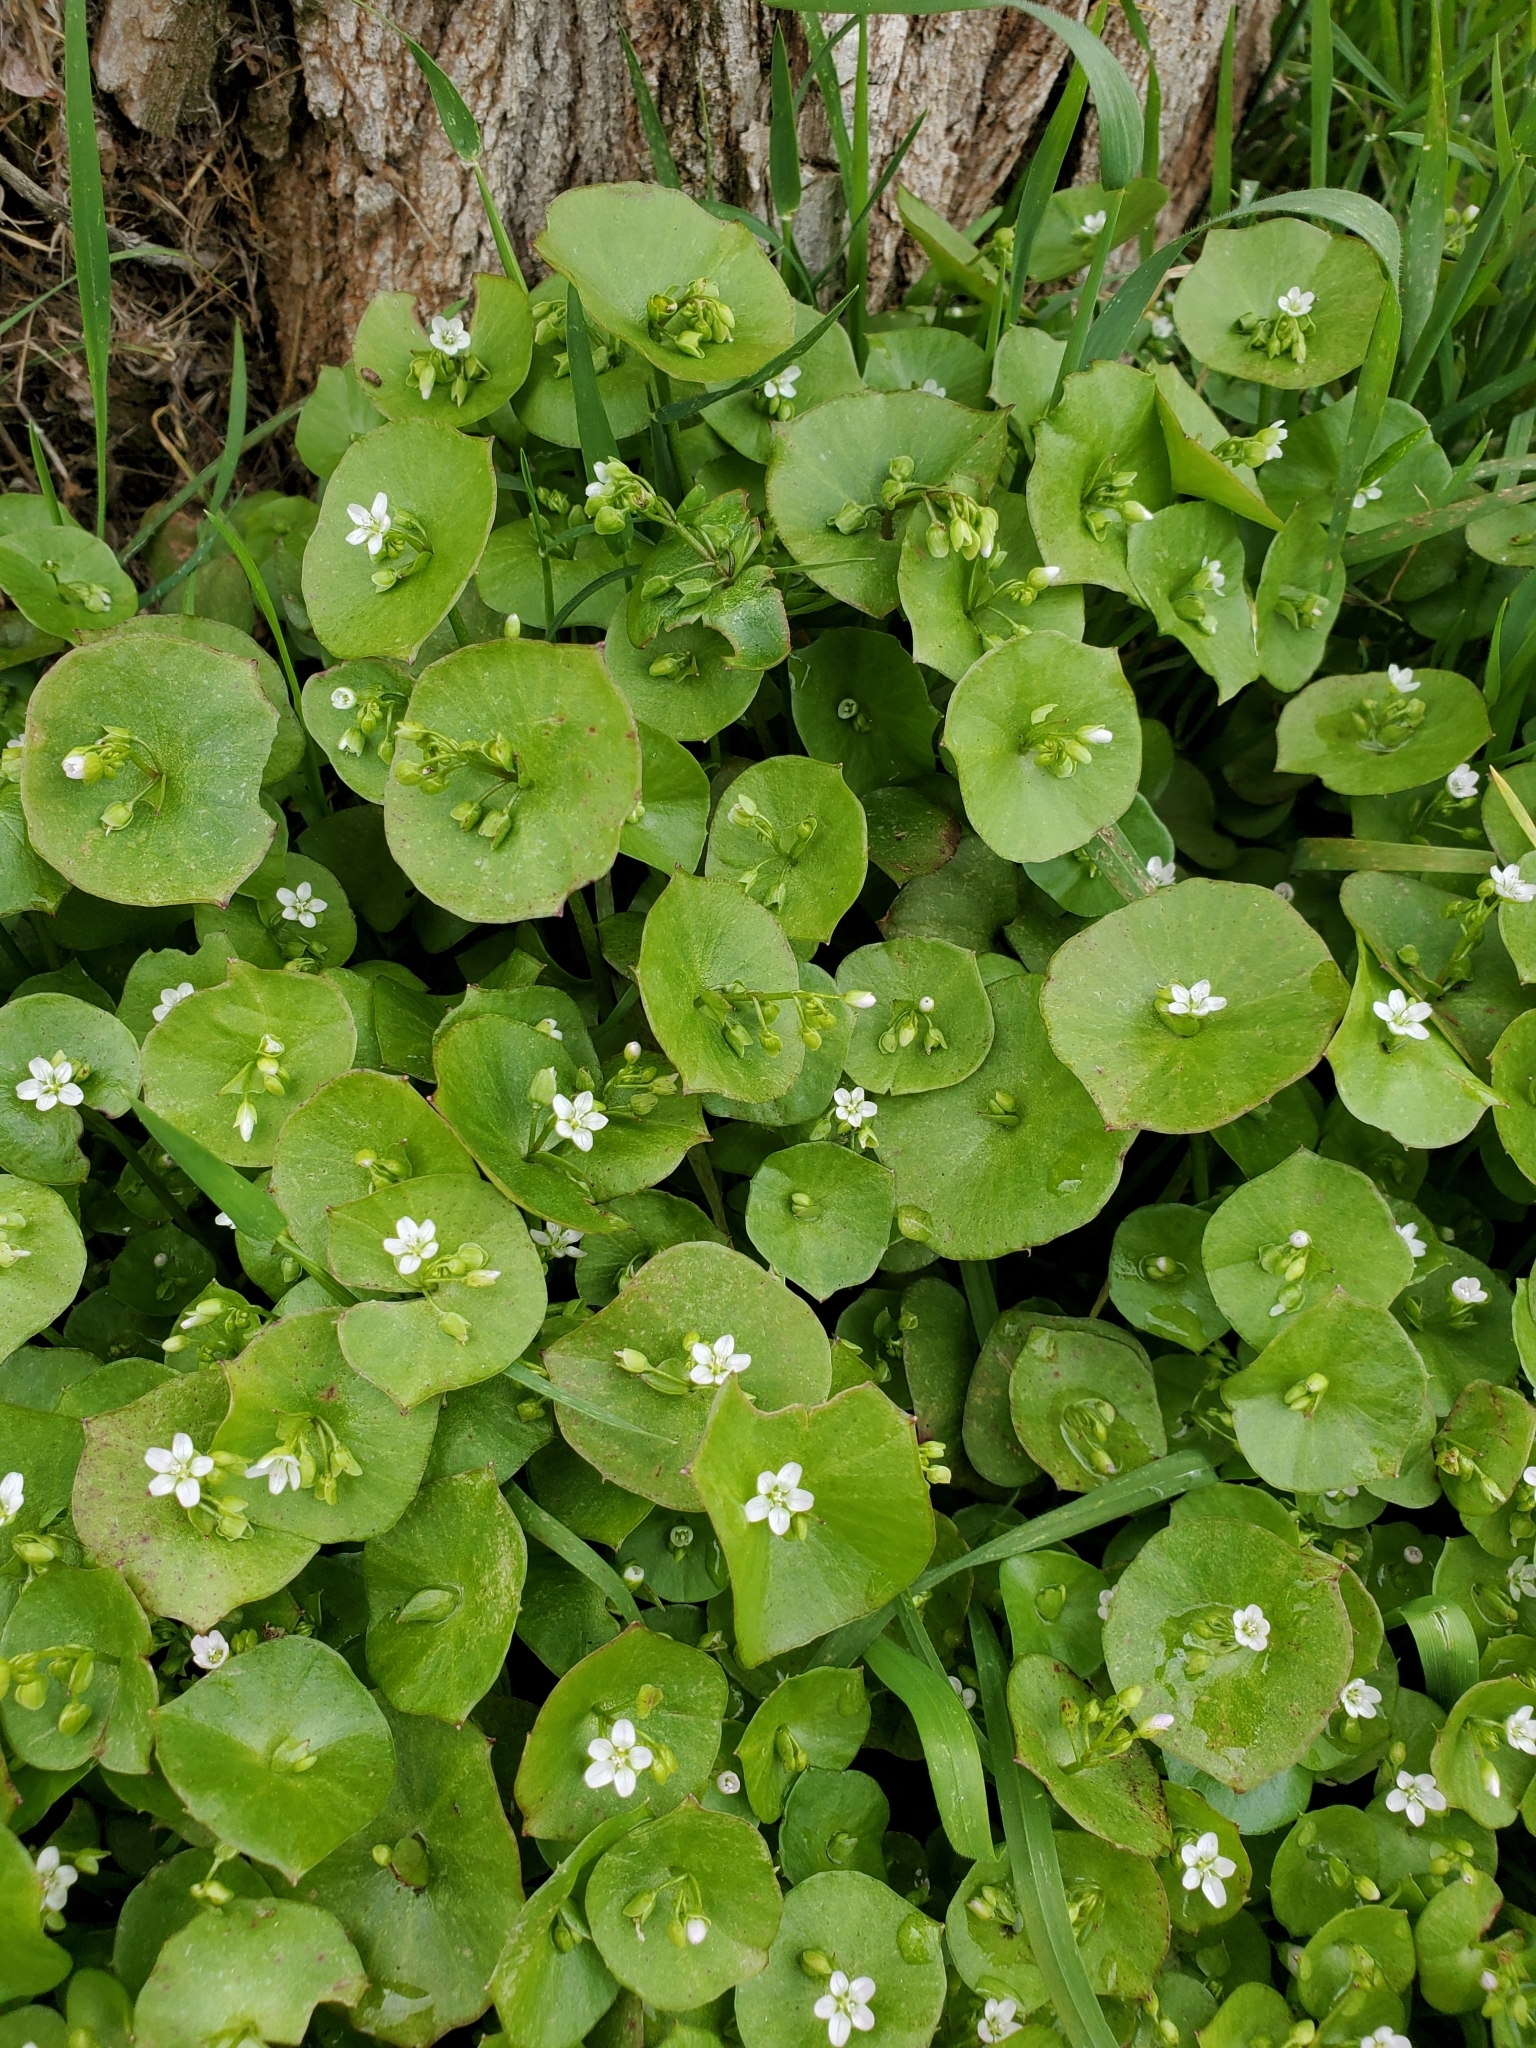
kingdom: Plantae
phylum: Tracheophyta
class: Magnoliopsida
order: Caryophyllales
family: Montiaceae
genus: Claytonia
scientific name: Claytonia perfoliata
